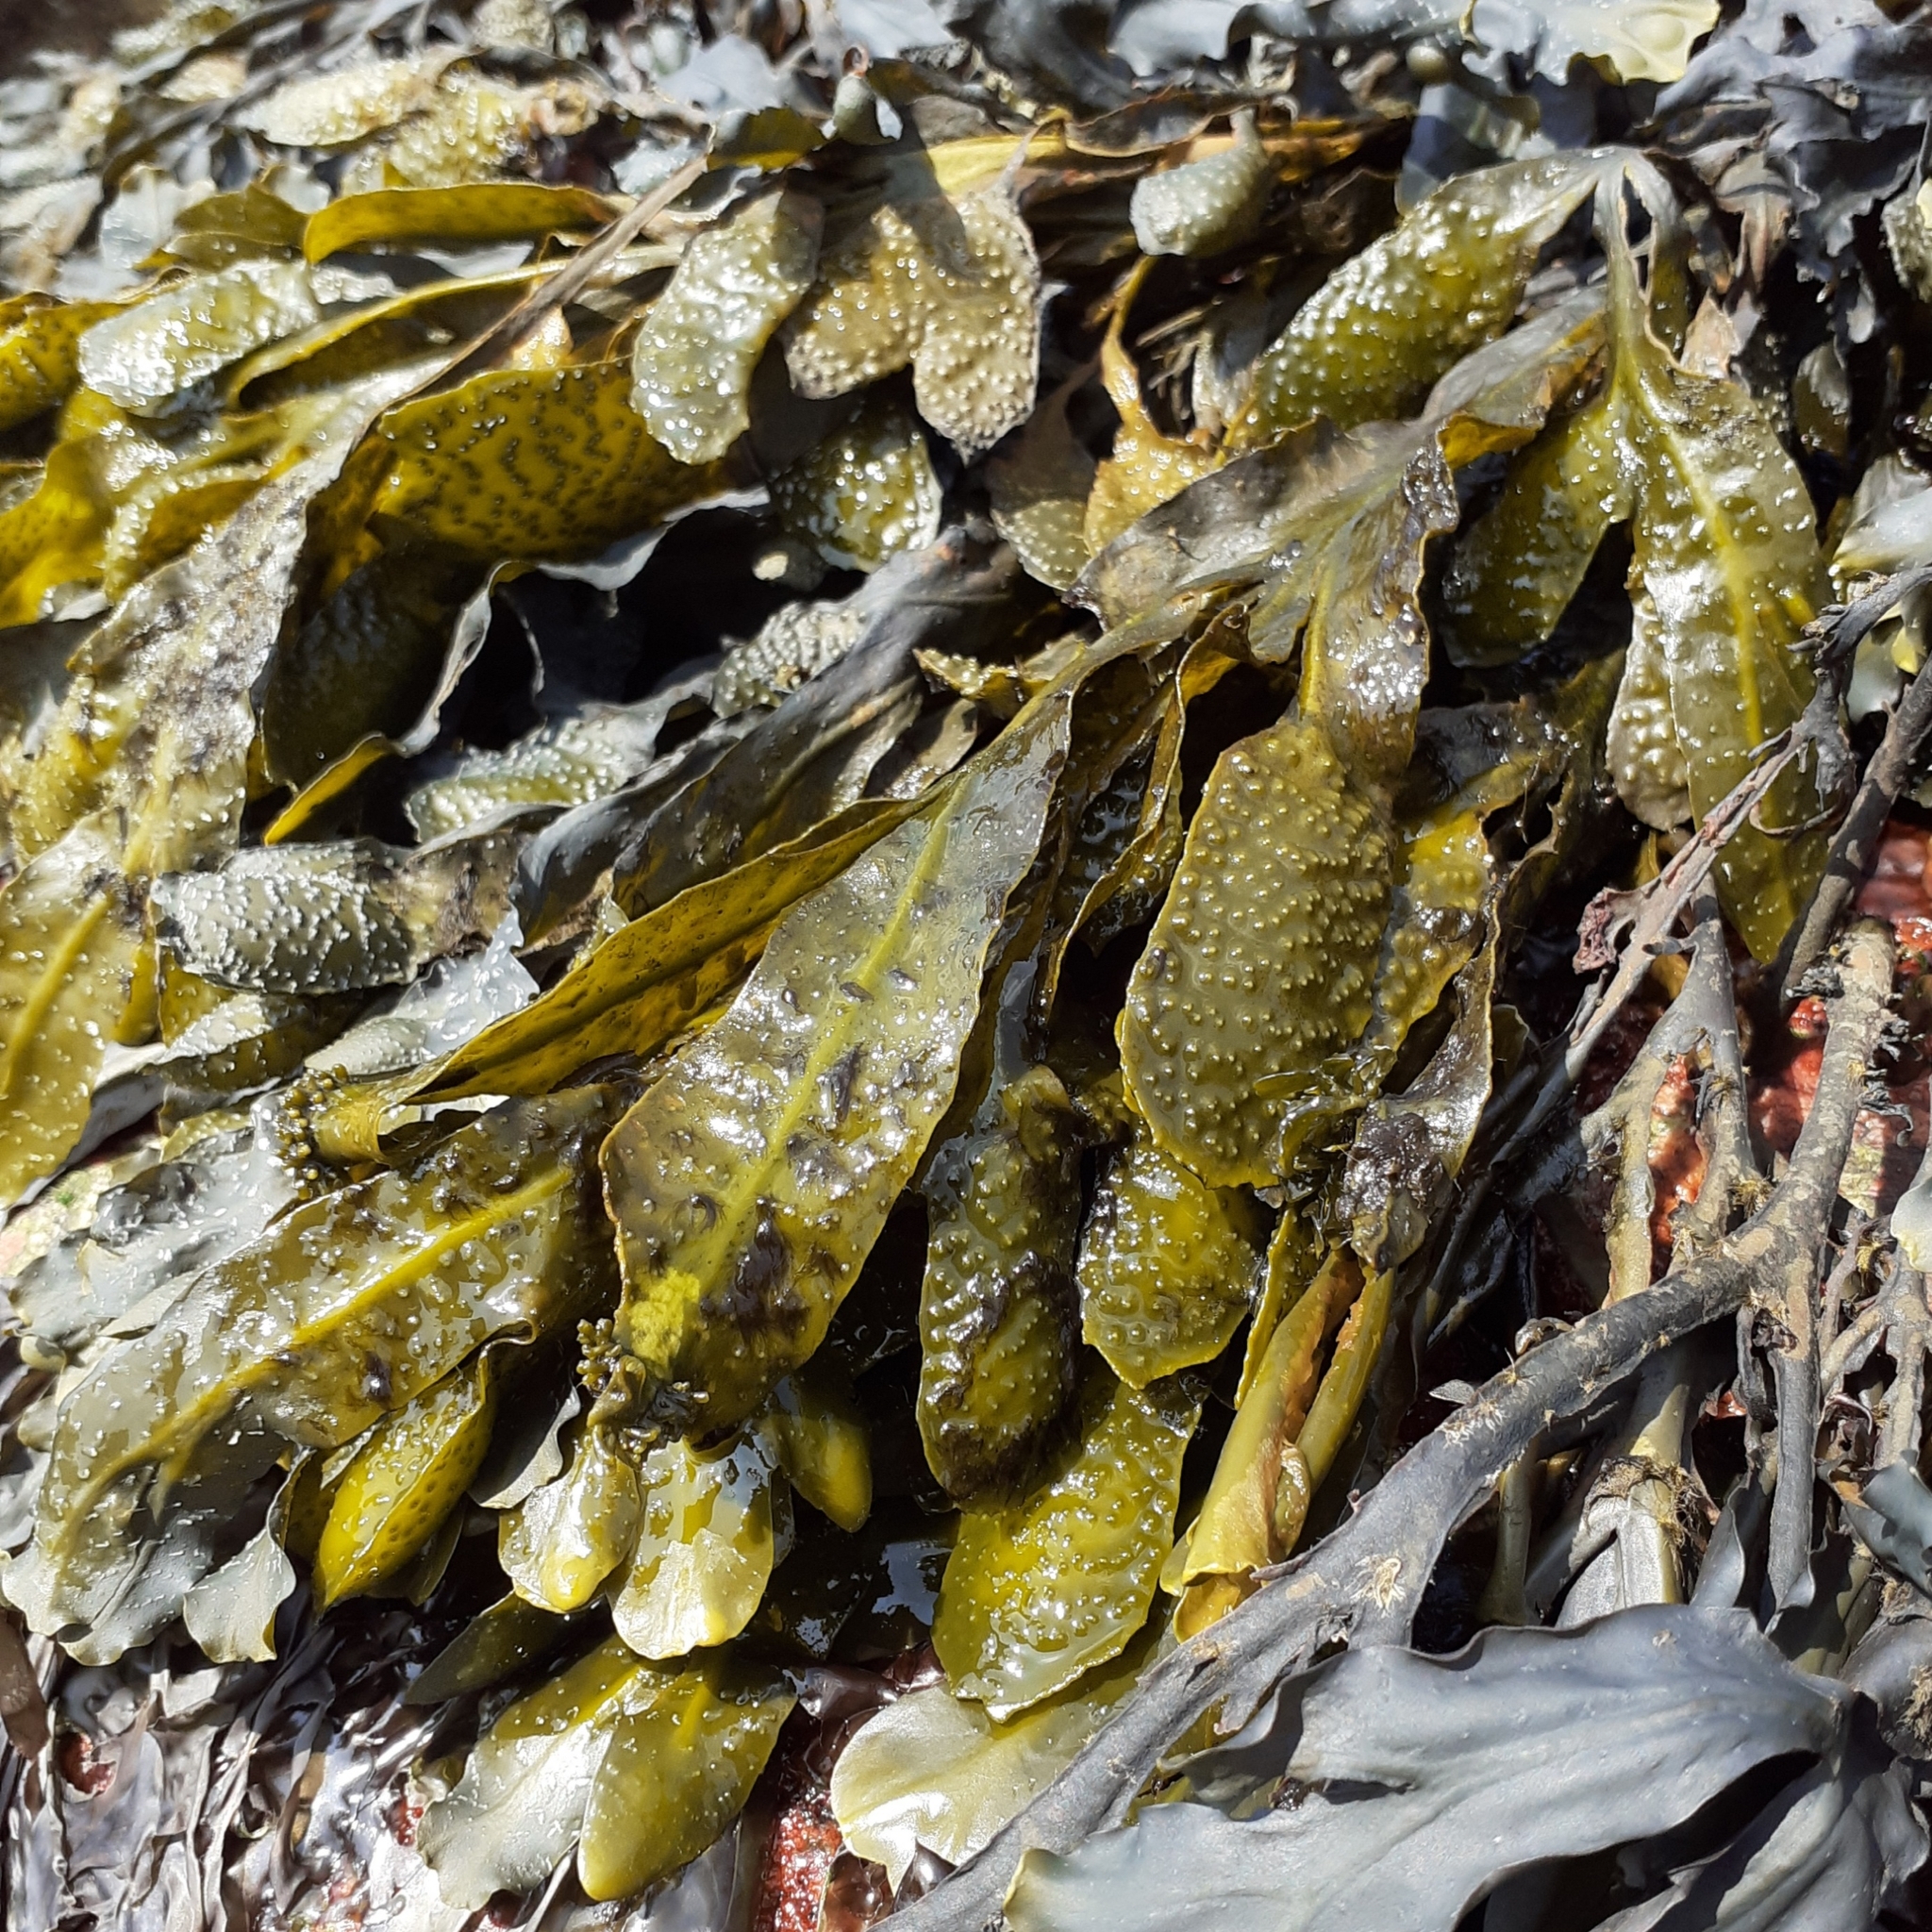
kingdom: Chromista
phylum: Ochrophyta
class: Phaeophyceae
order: Fucales
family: Fucaceae
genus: Fucus
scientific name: Fucus spiralis
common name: Spiral wrack
